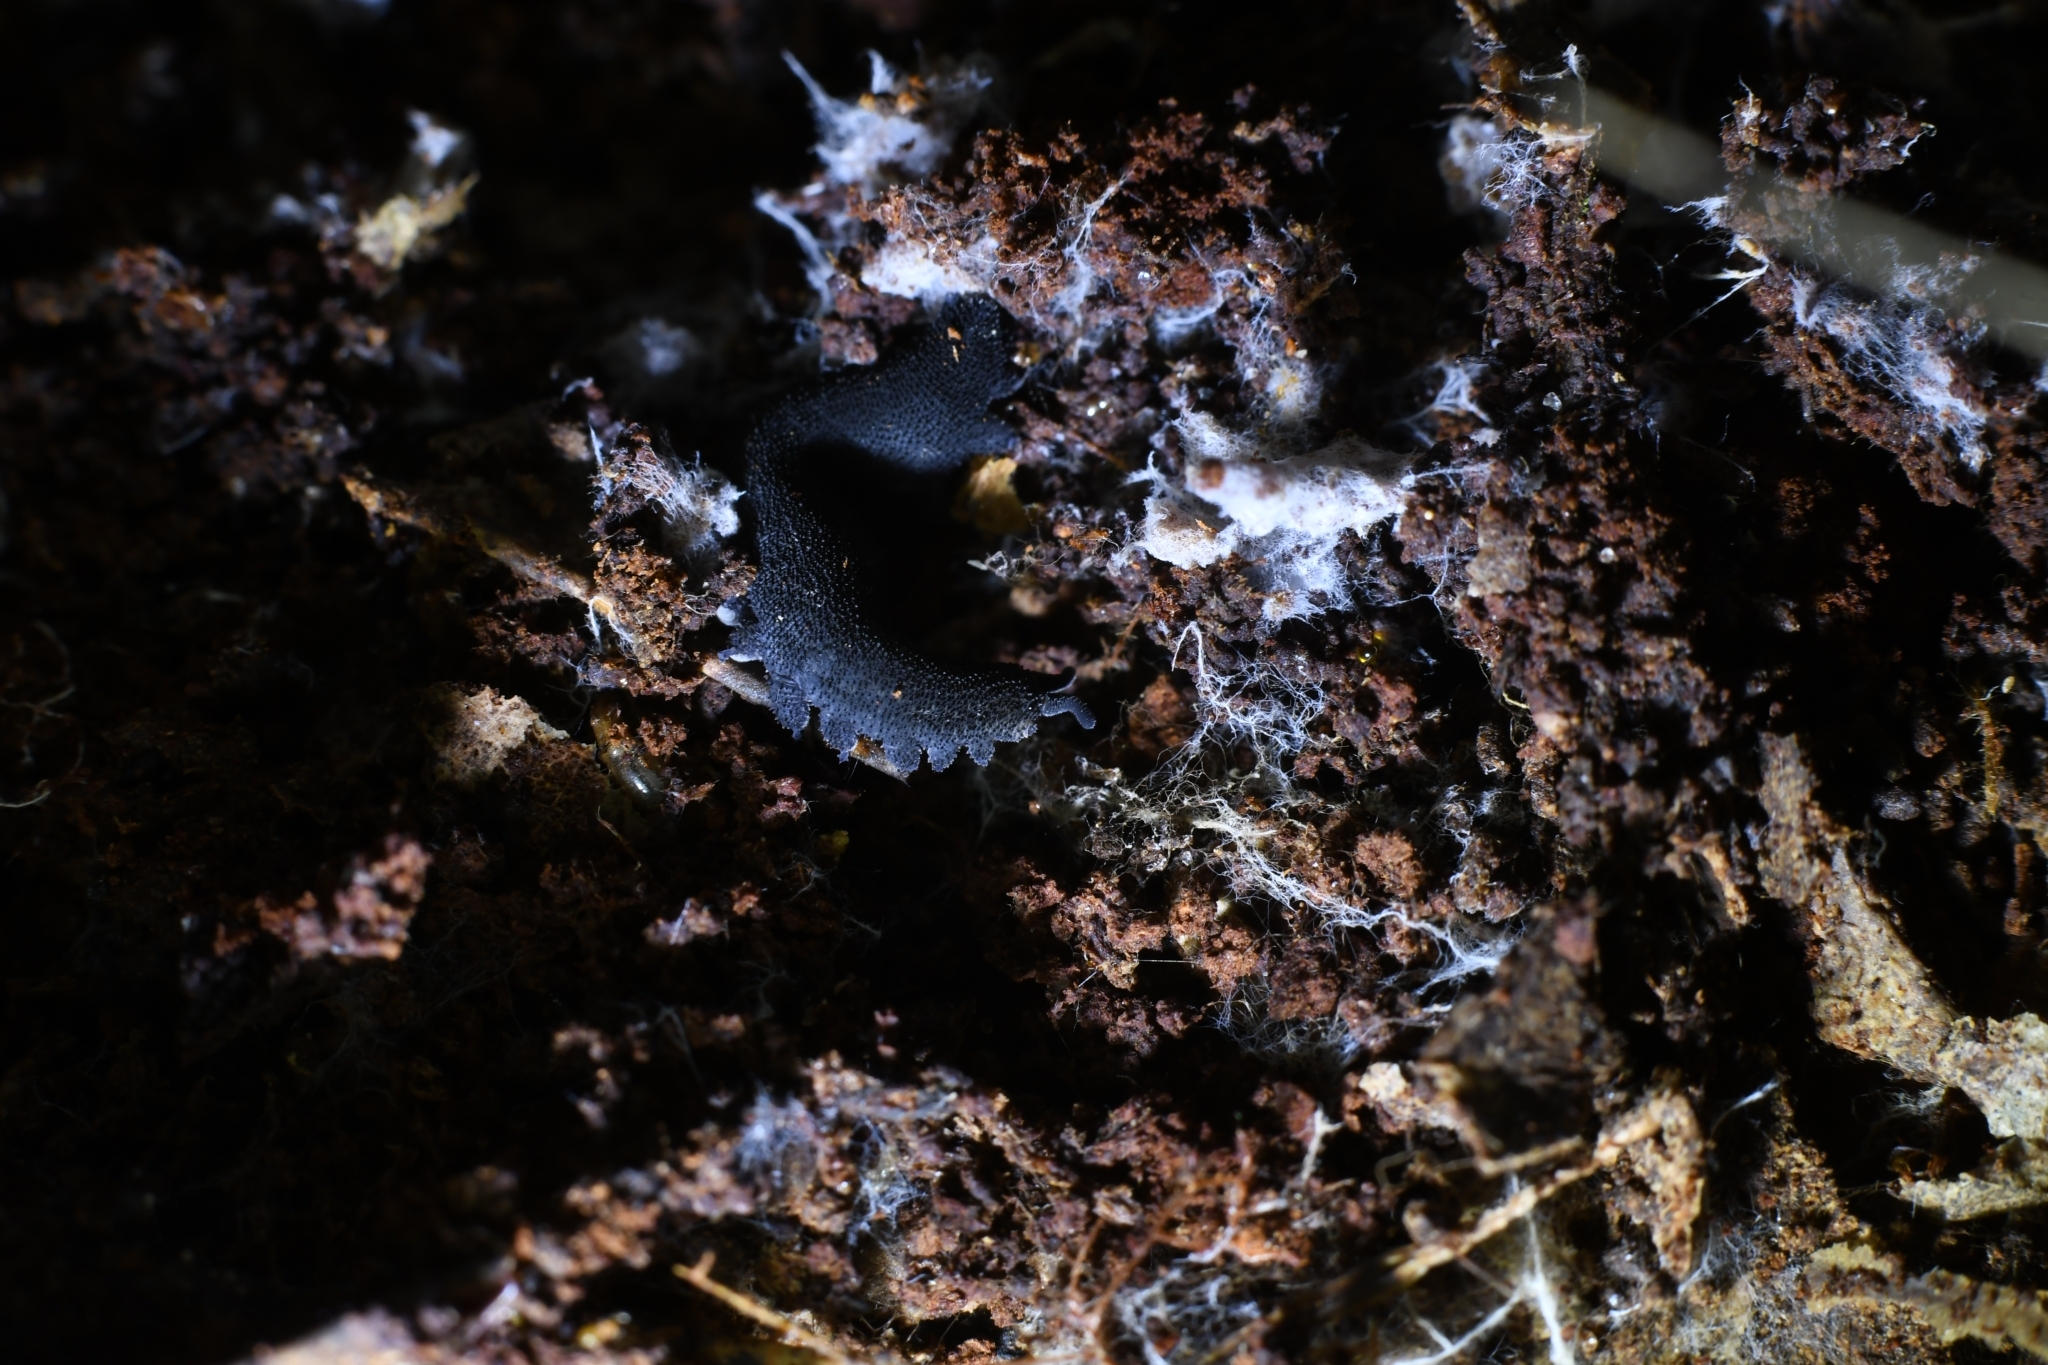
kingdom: Animalia
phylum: Onychophora
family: Peripatopsidae
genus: Kumbadjena
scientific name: Kumbadjena extrema
